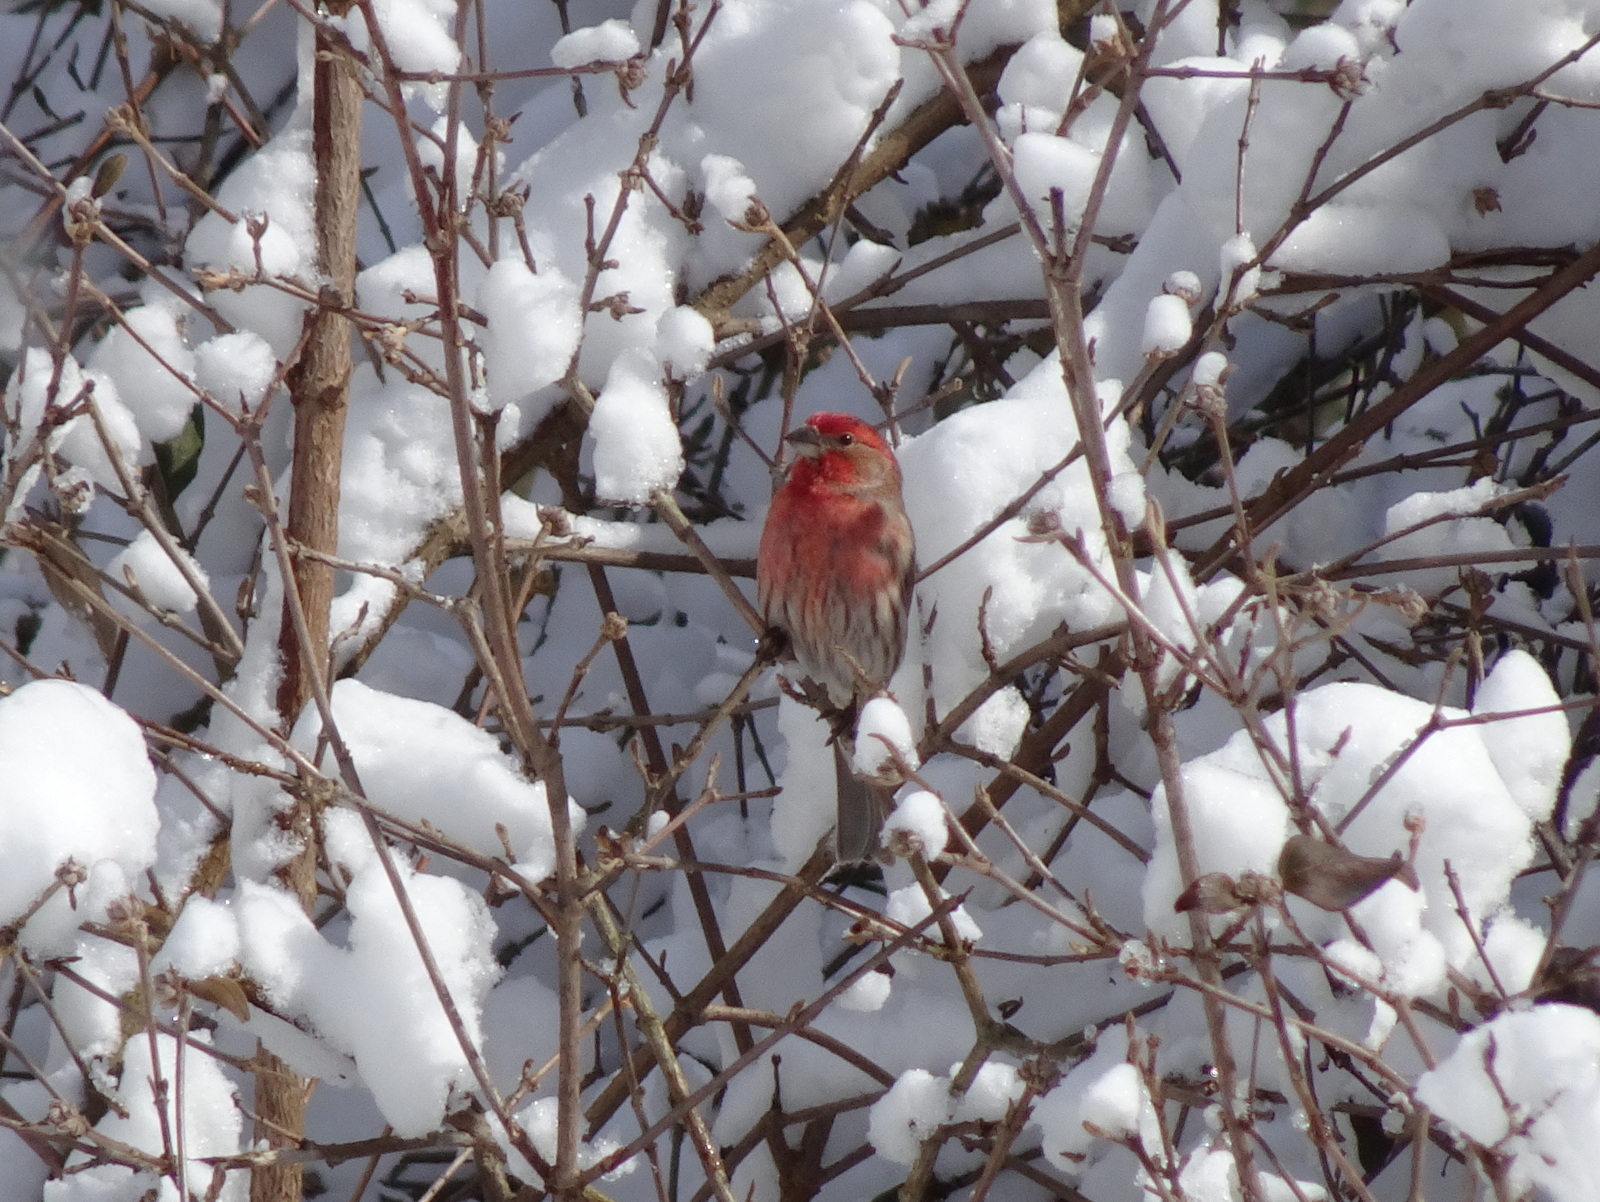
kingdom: Animalia
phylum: Chordata
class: Aves
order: Passeriformes
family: Fringillidae
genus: Haemorhous
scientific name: Haemorhous mexicanus
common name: House finch
